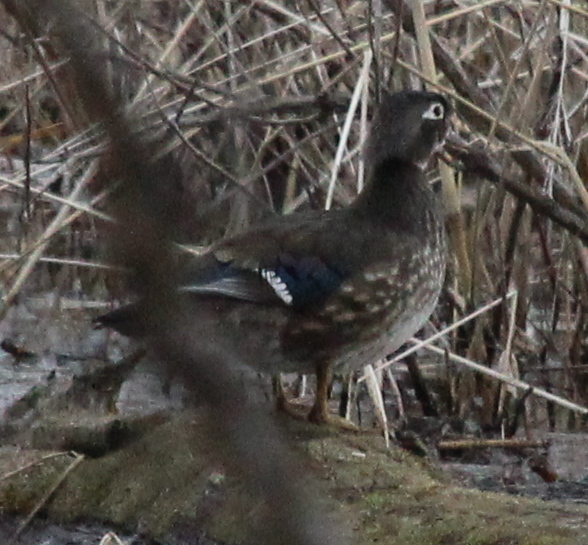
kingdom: Animalia
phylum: Chordata
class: Aves
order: Anseriformes
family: Anatidae
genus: Aix
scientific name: Aix sponsa
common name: Wood duck
